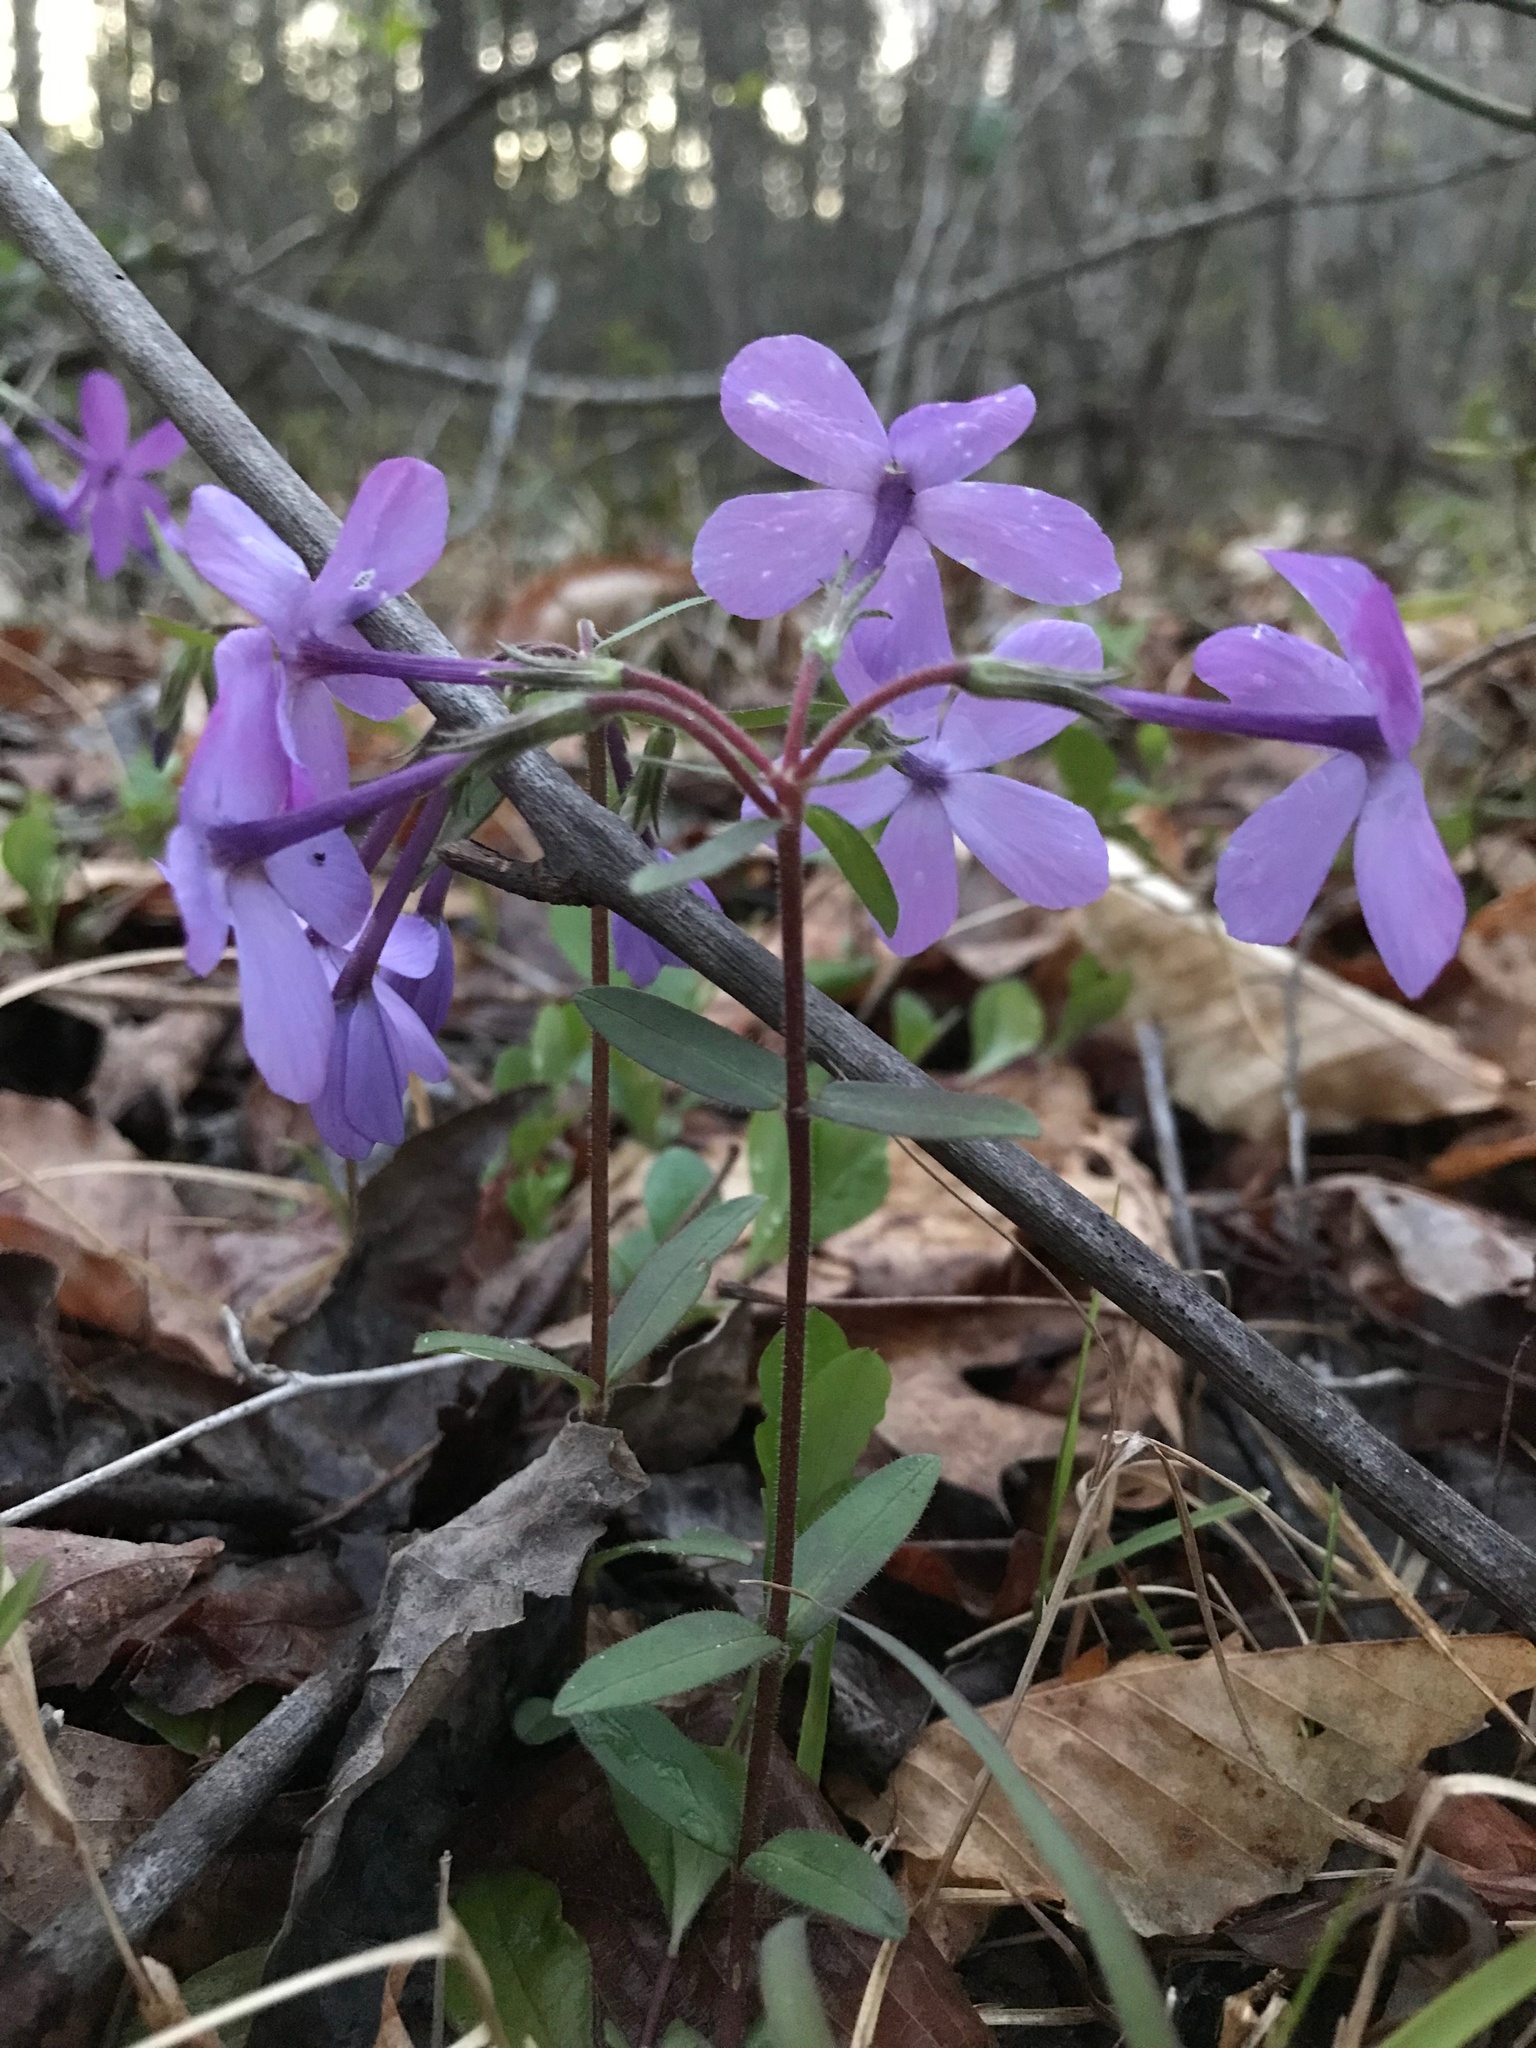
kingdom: Plantae
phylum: Tracheophyta
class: Magnoliopsida
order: Ericales
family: Polemoniaceae
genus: Phlox
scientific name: Phlox stolonifera
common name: Creeping phlox
